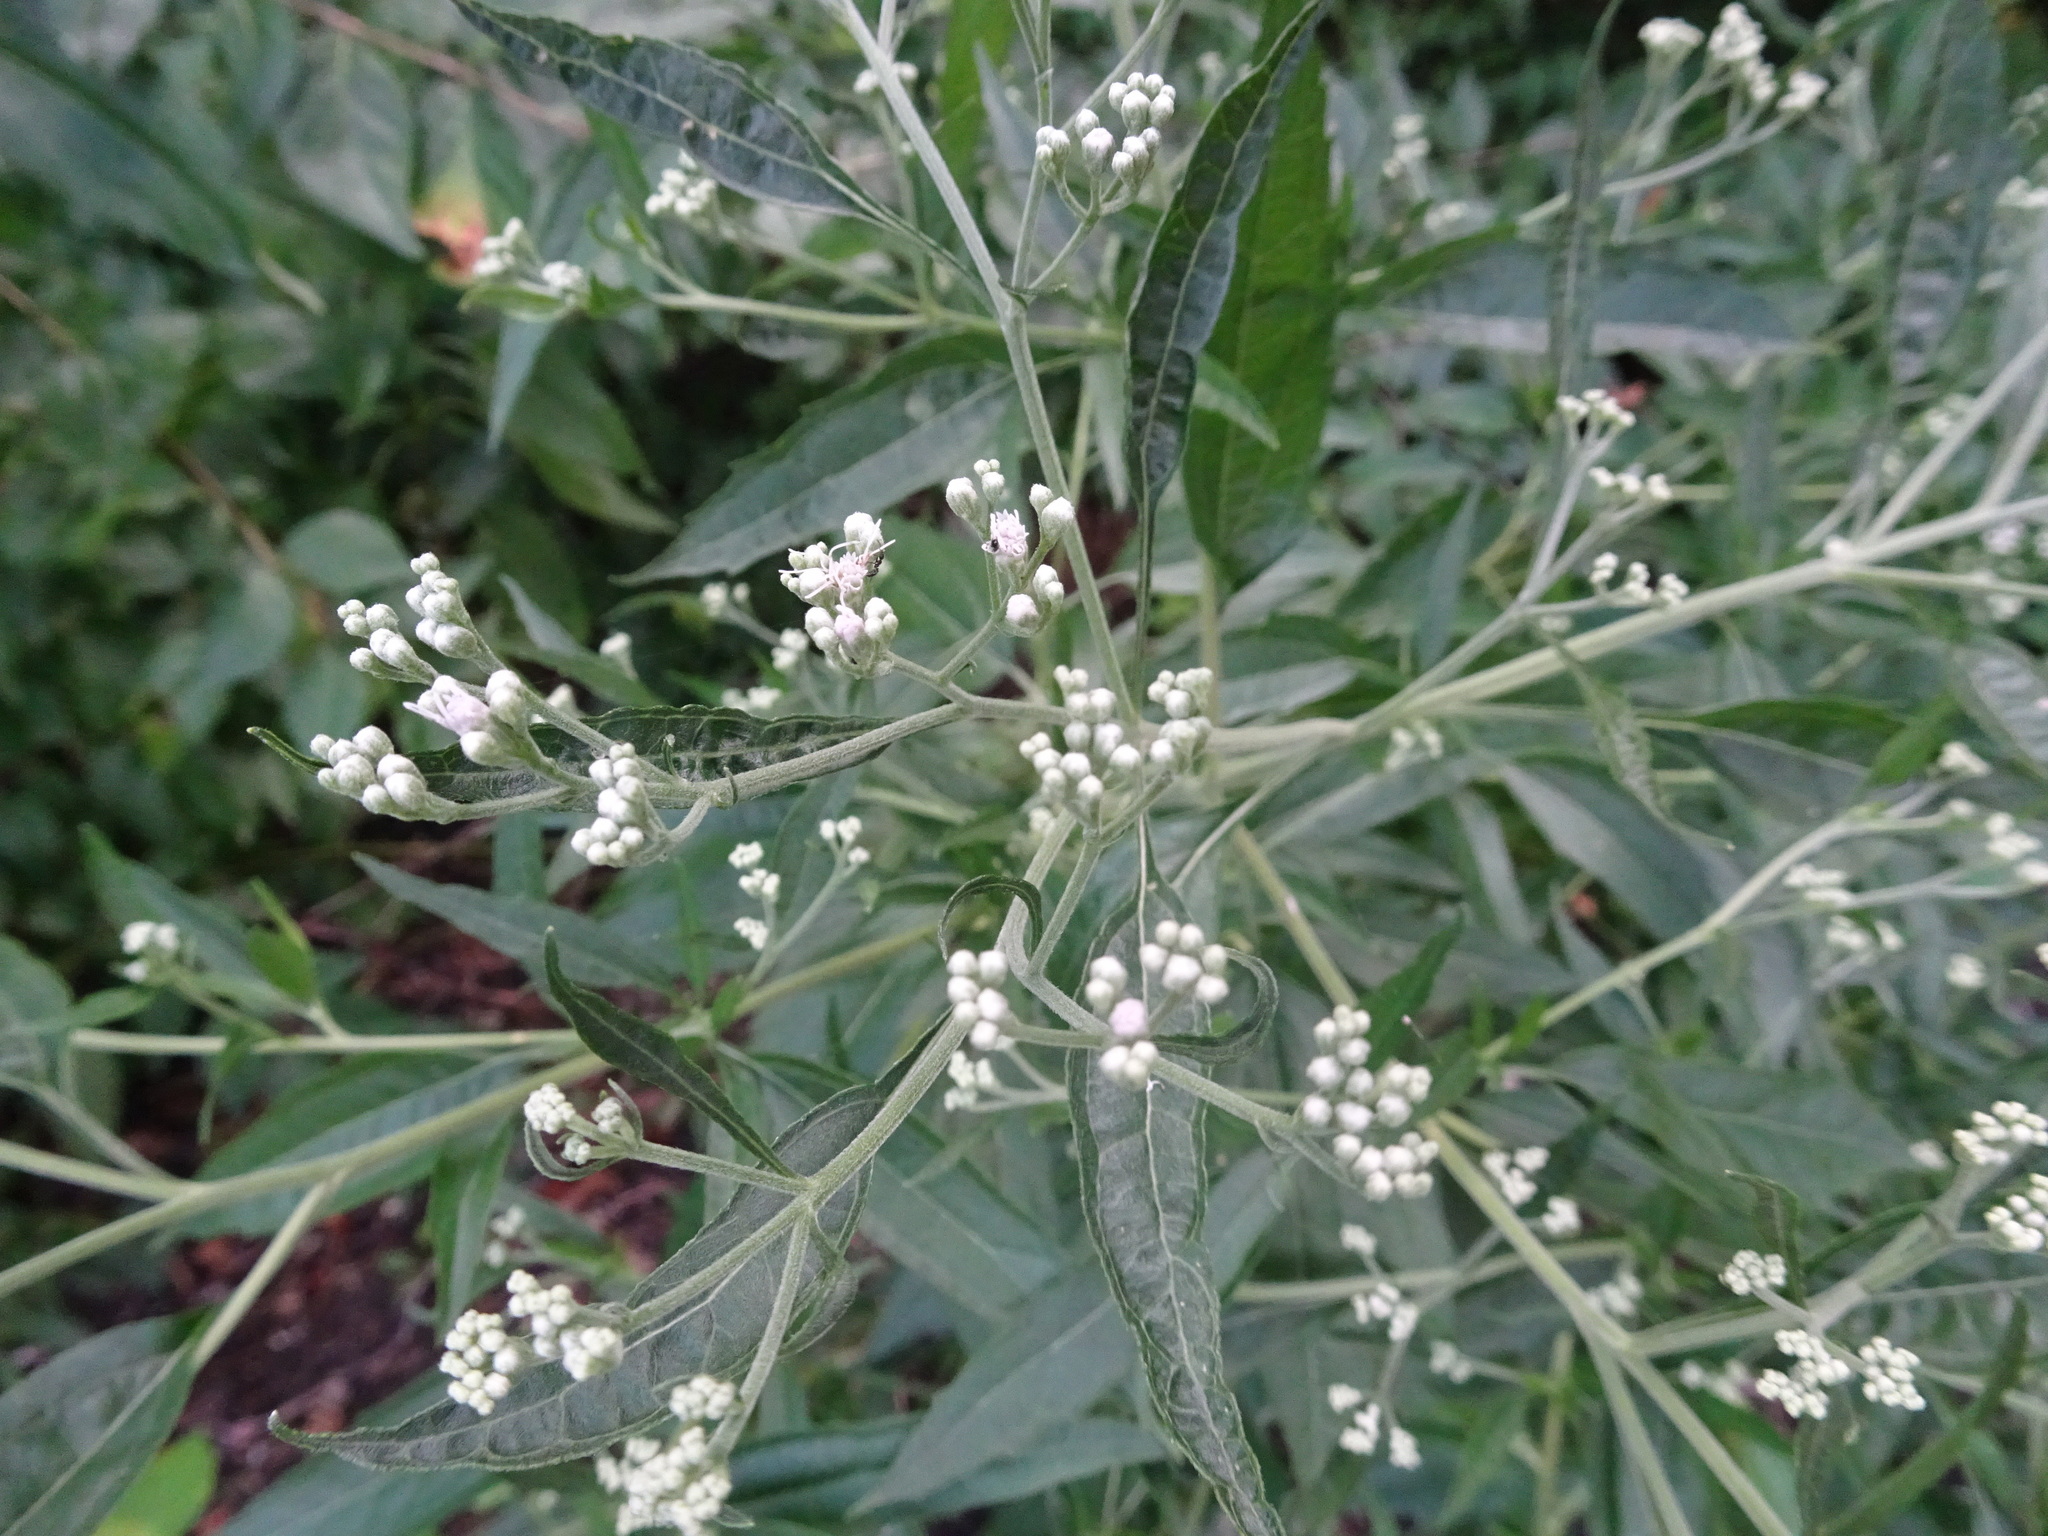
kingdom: Plantae
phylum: Tracheophyta
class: Magnoliopsida
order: Asterales
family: Asteraceae
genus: Eupatorium
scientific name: Eupatorium serotinum
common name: Late boneset
